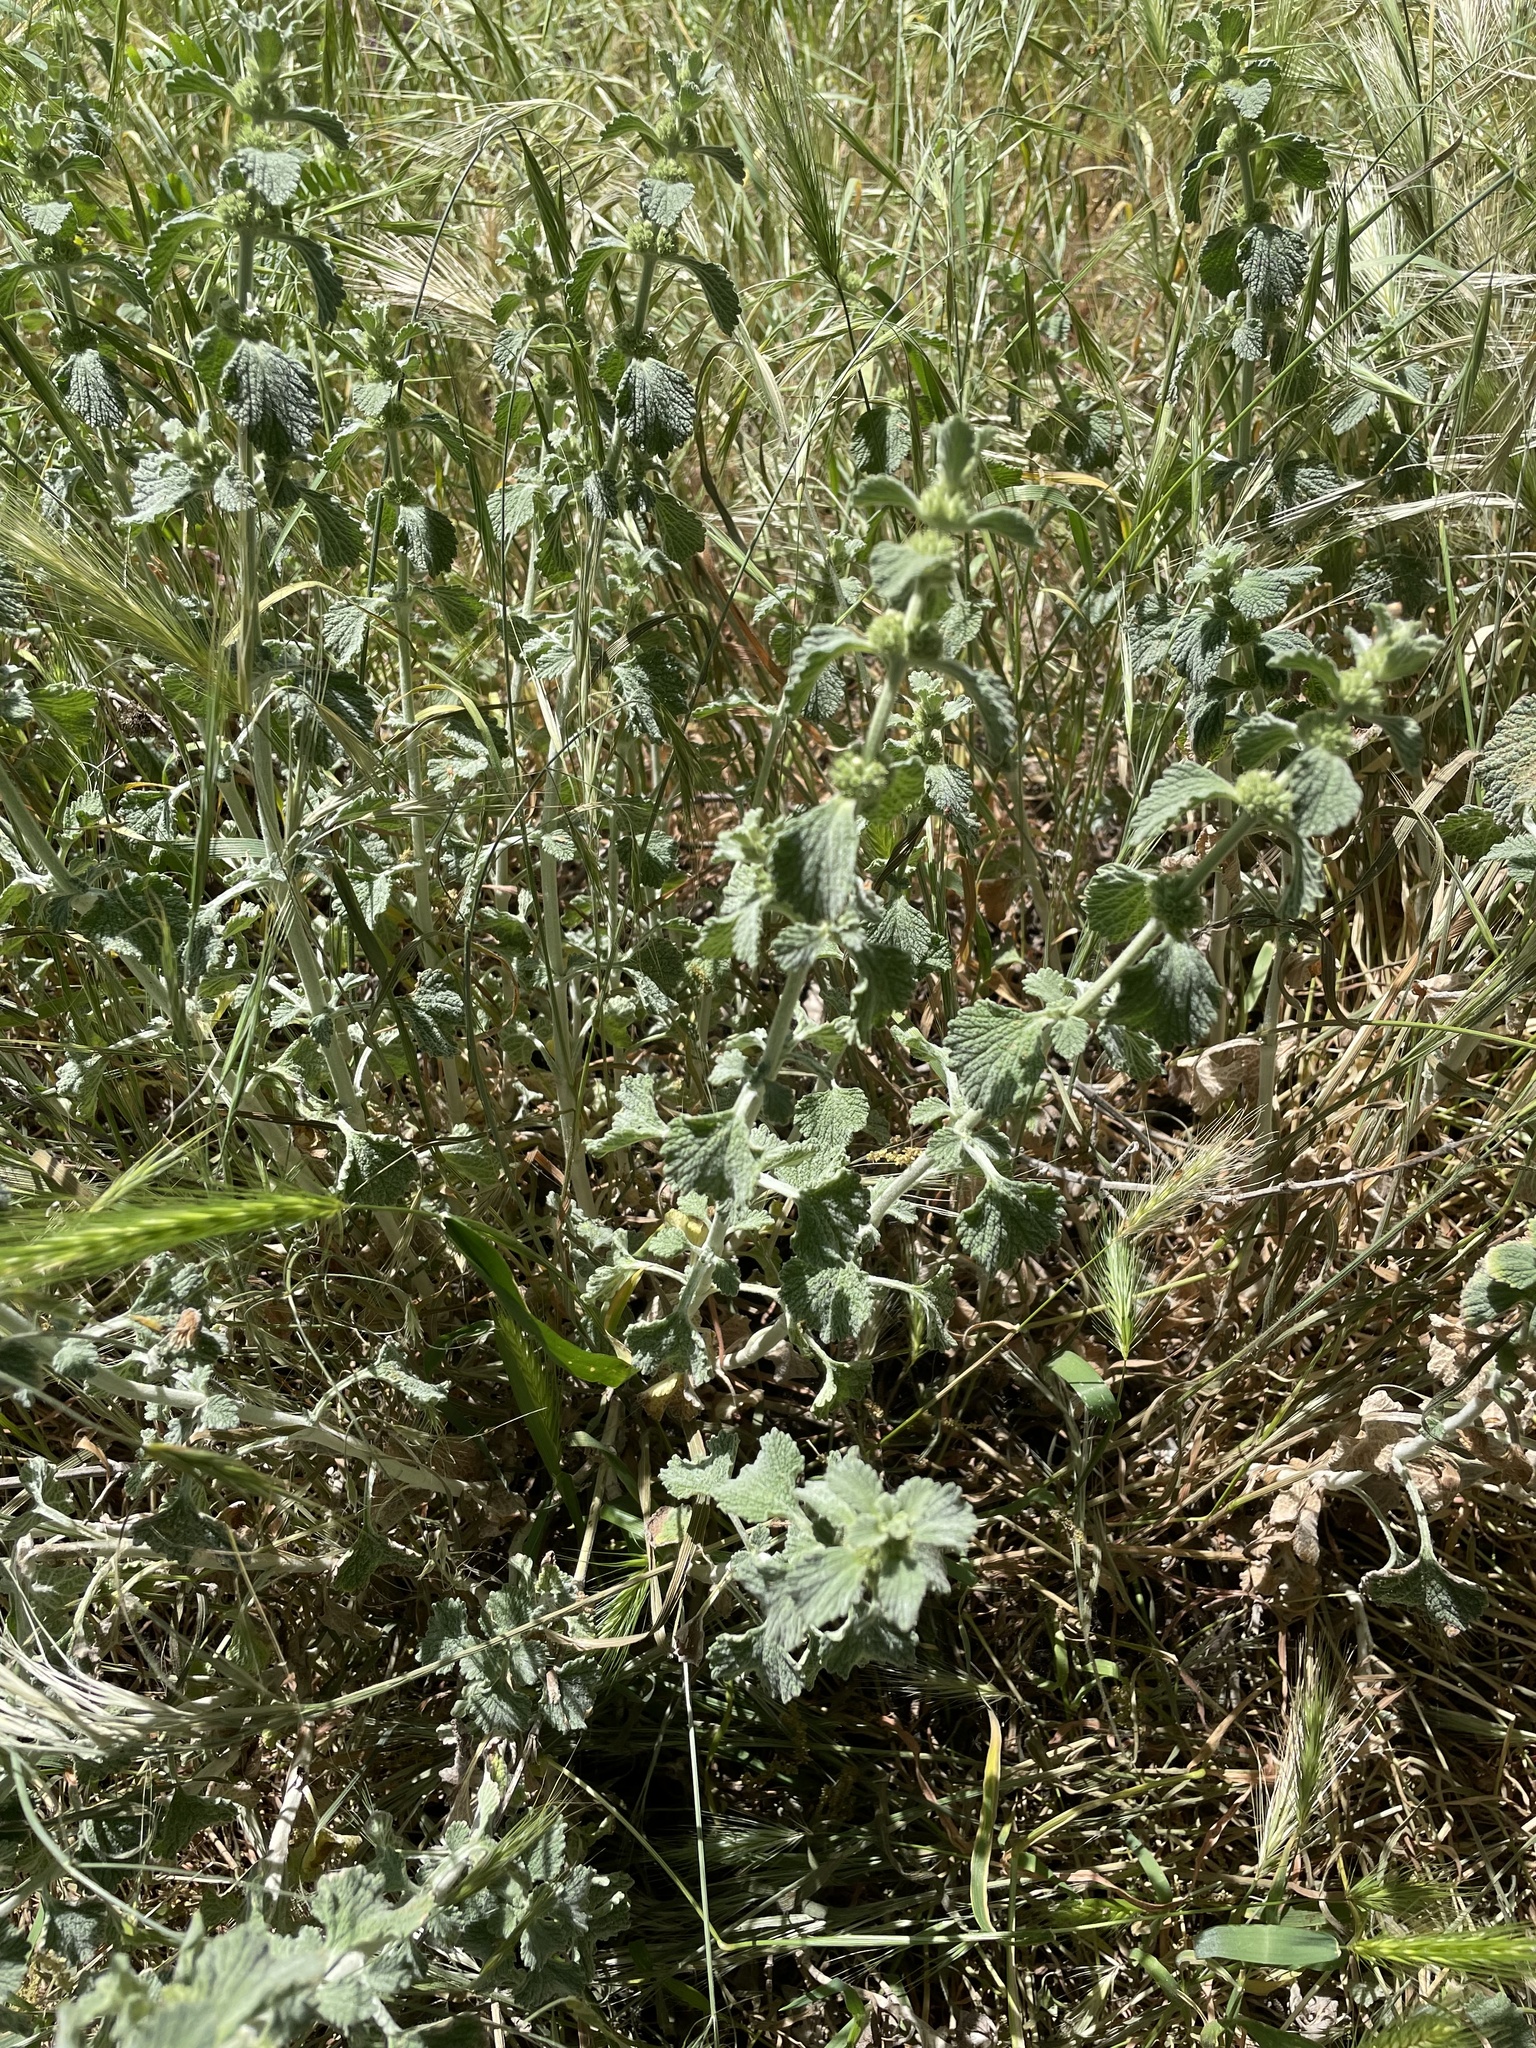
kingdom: Plantae
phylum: Tracheophyta
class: Magnoliopsida
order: Lamiales
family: Lamiaceae
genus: Marrubium
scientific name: Marrubium vulgare
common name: Horehound
